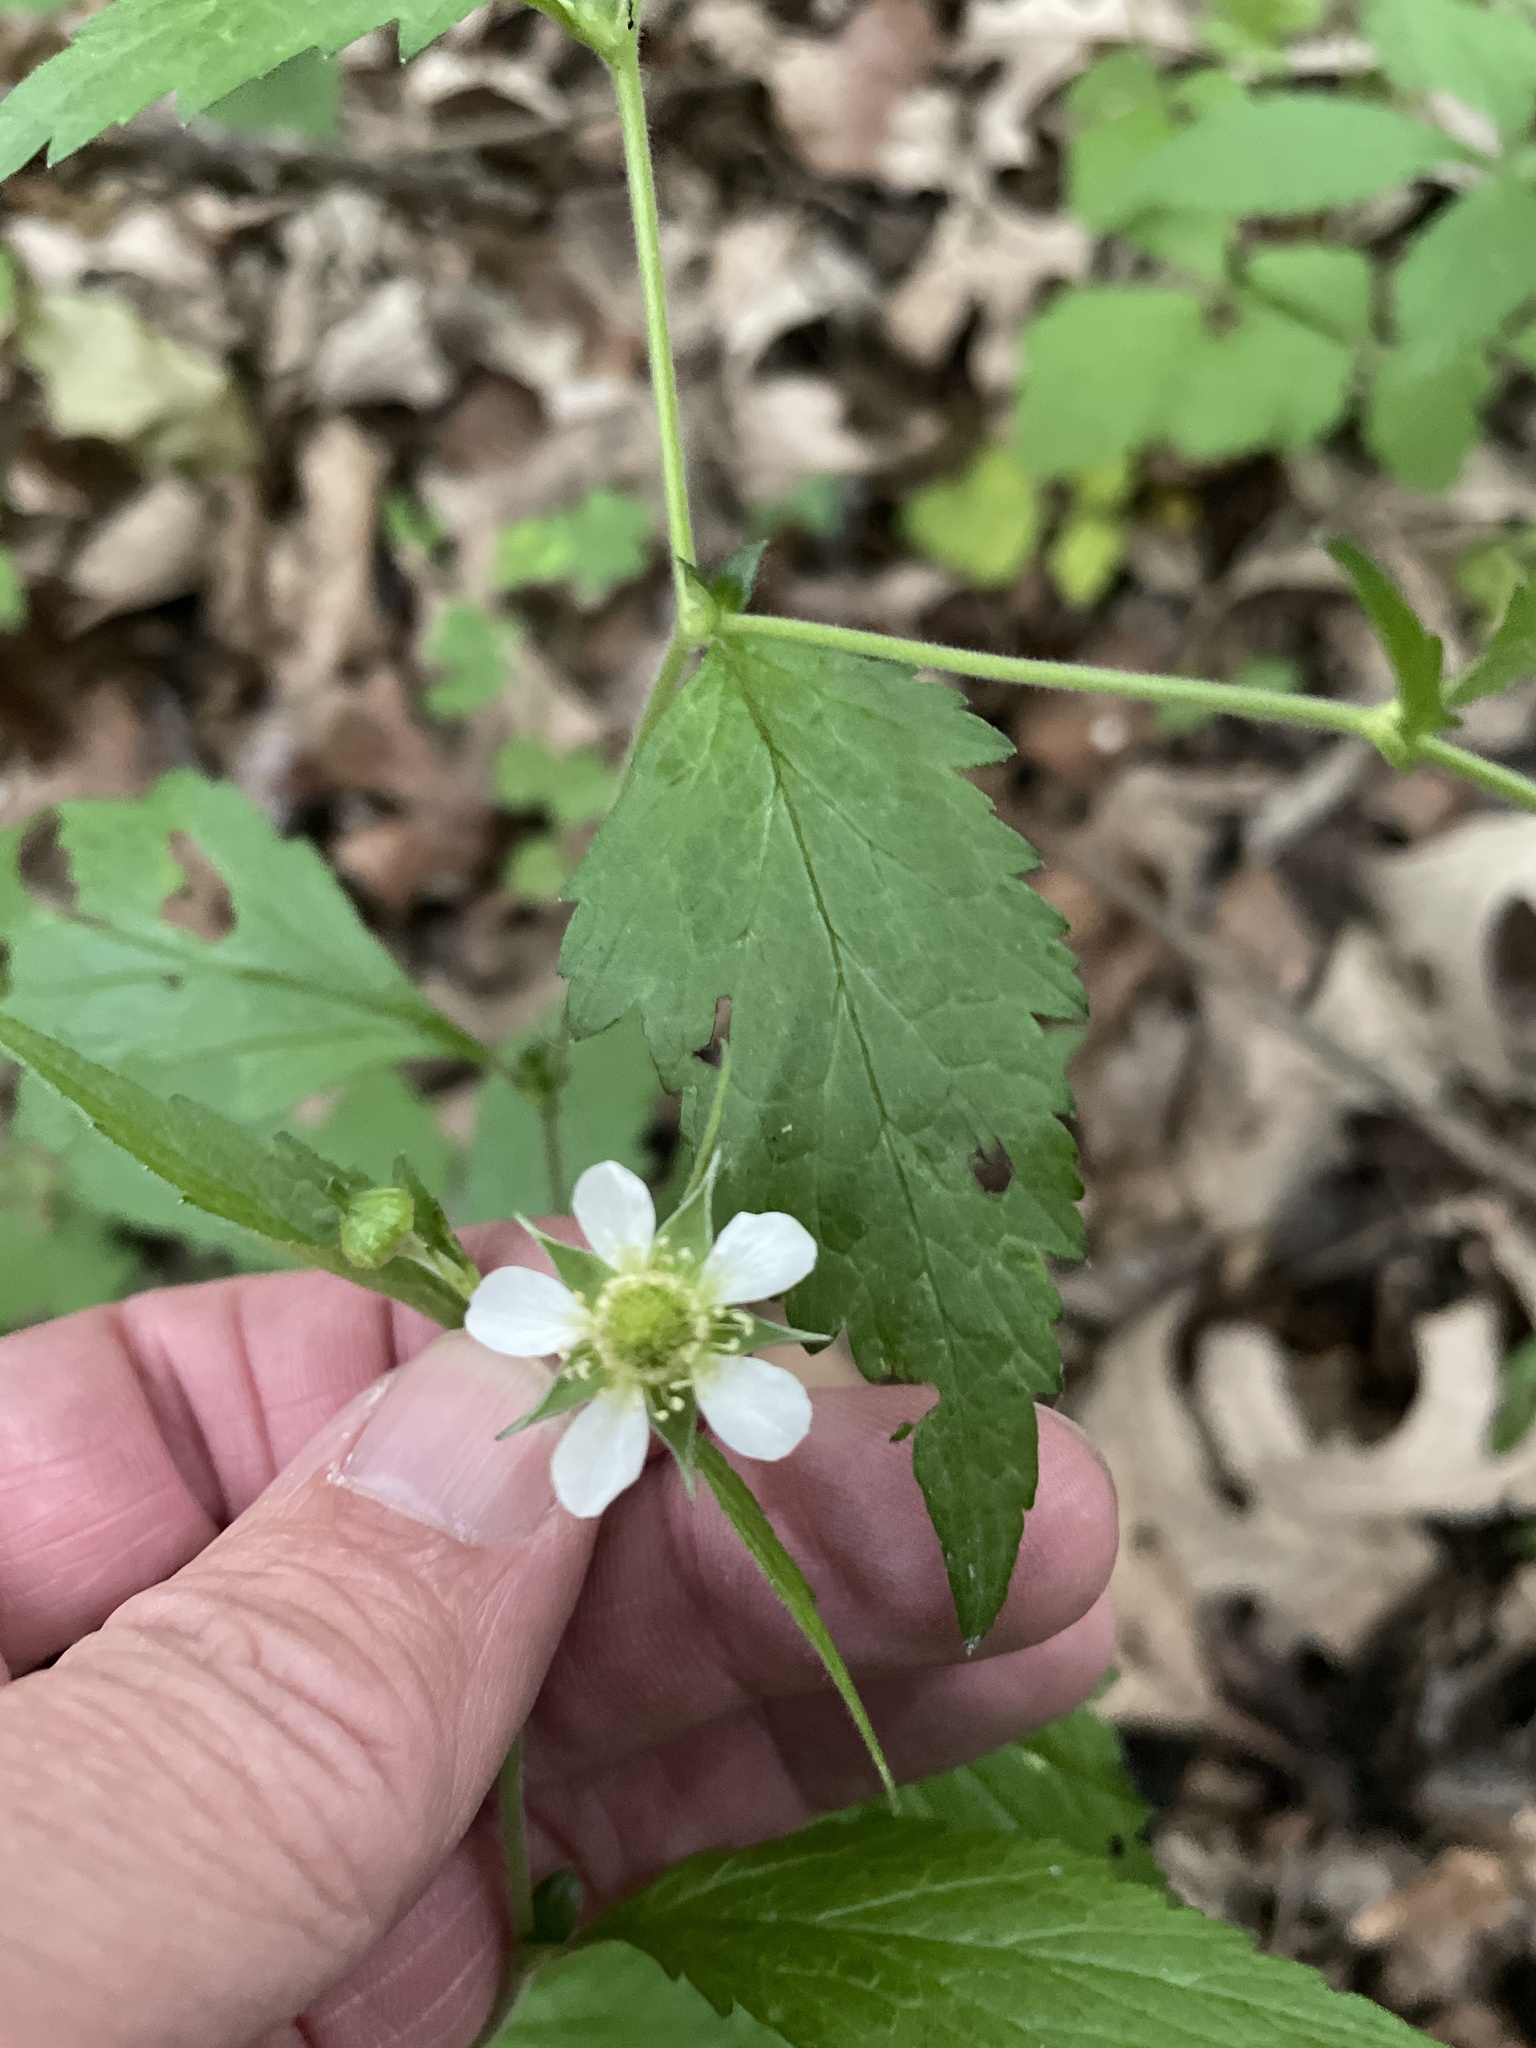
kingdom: Plantae
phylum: Tracheophyta
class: Magnoliopsida
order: Rosales
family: Rosaceae
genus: Geum
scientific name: Geum canadense
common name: White avens
